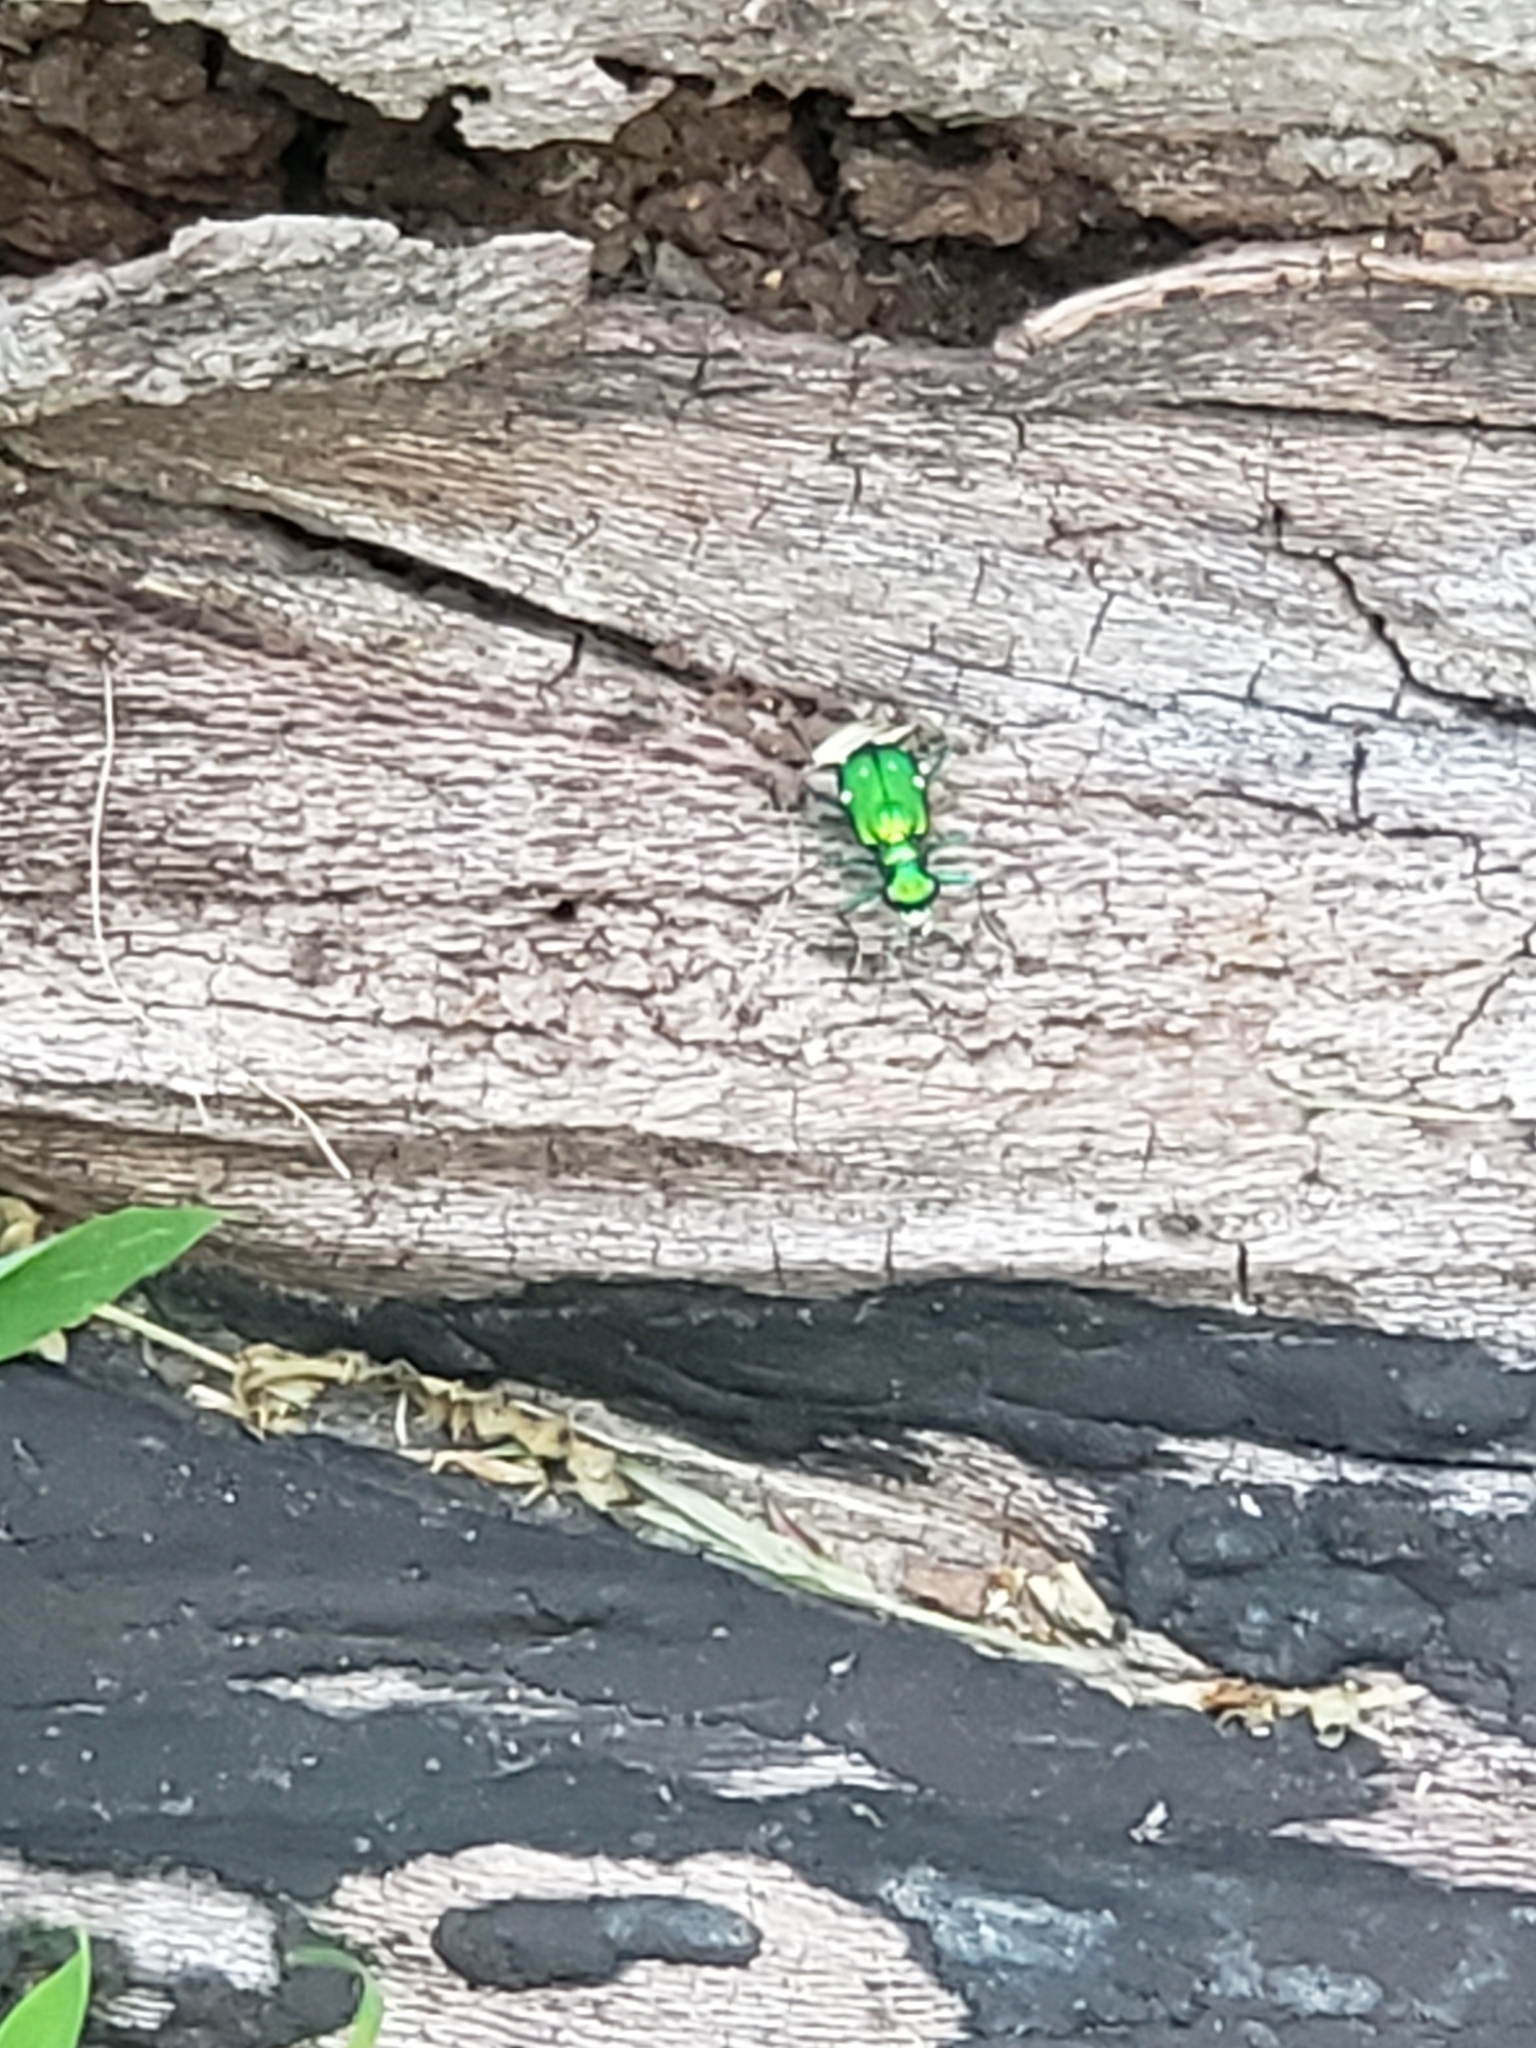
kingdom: Animalia
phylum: Arthropoda
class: Insecta
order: Coleoptera
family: Carabidae
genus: Cicindela
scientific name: Cicindela sexguttata
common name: Six-spotted tiger beetle
